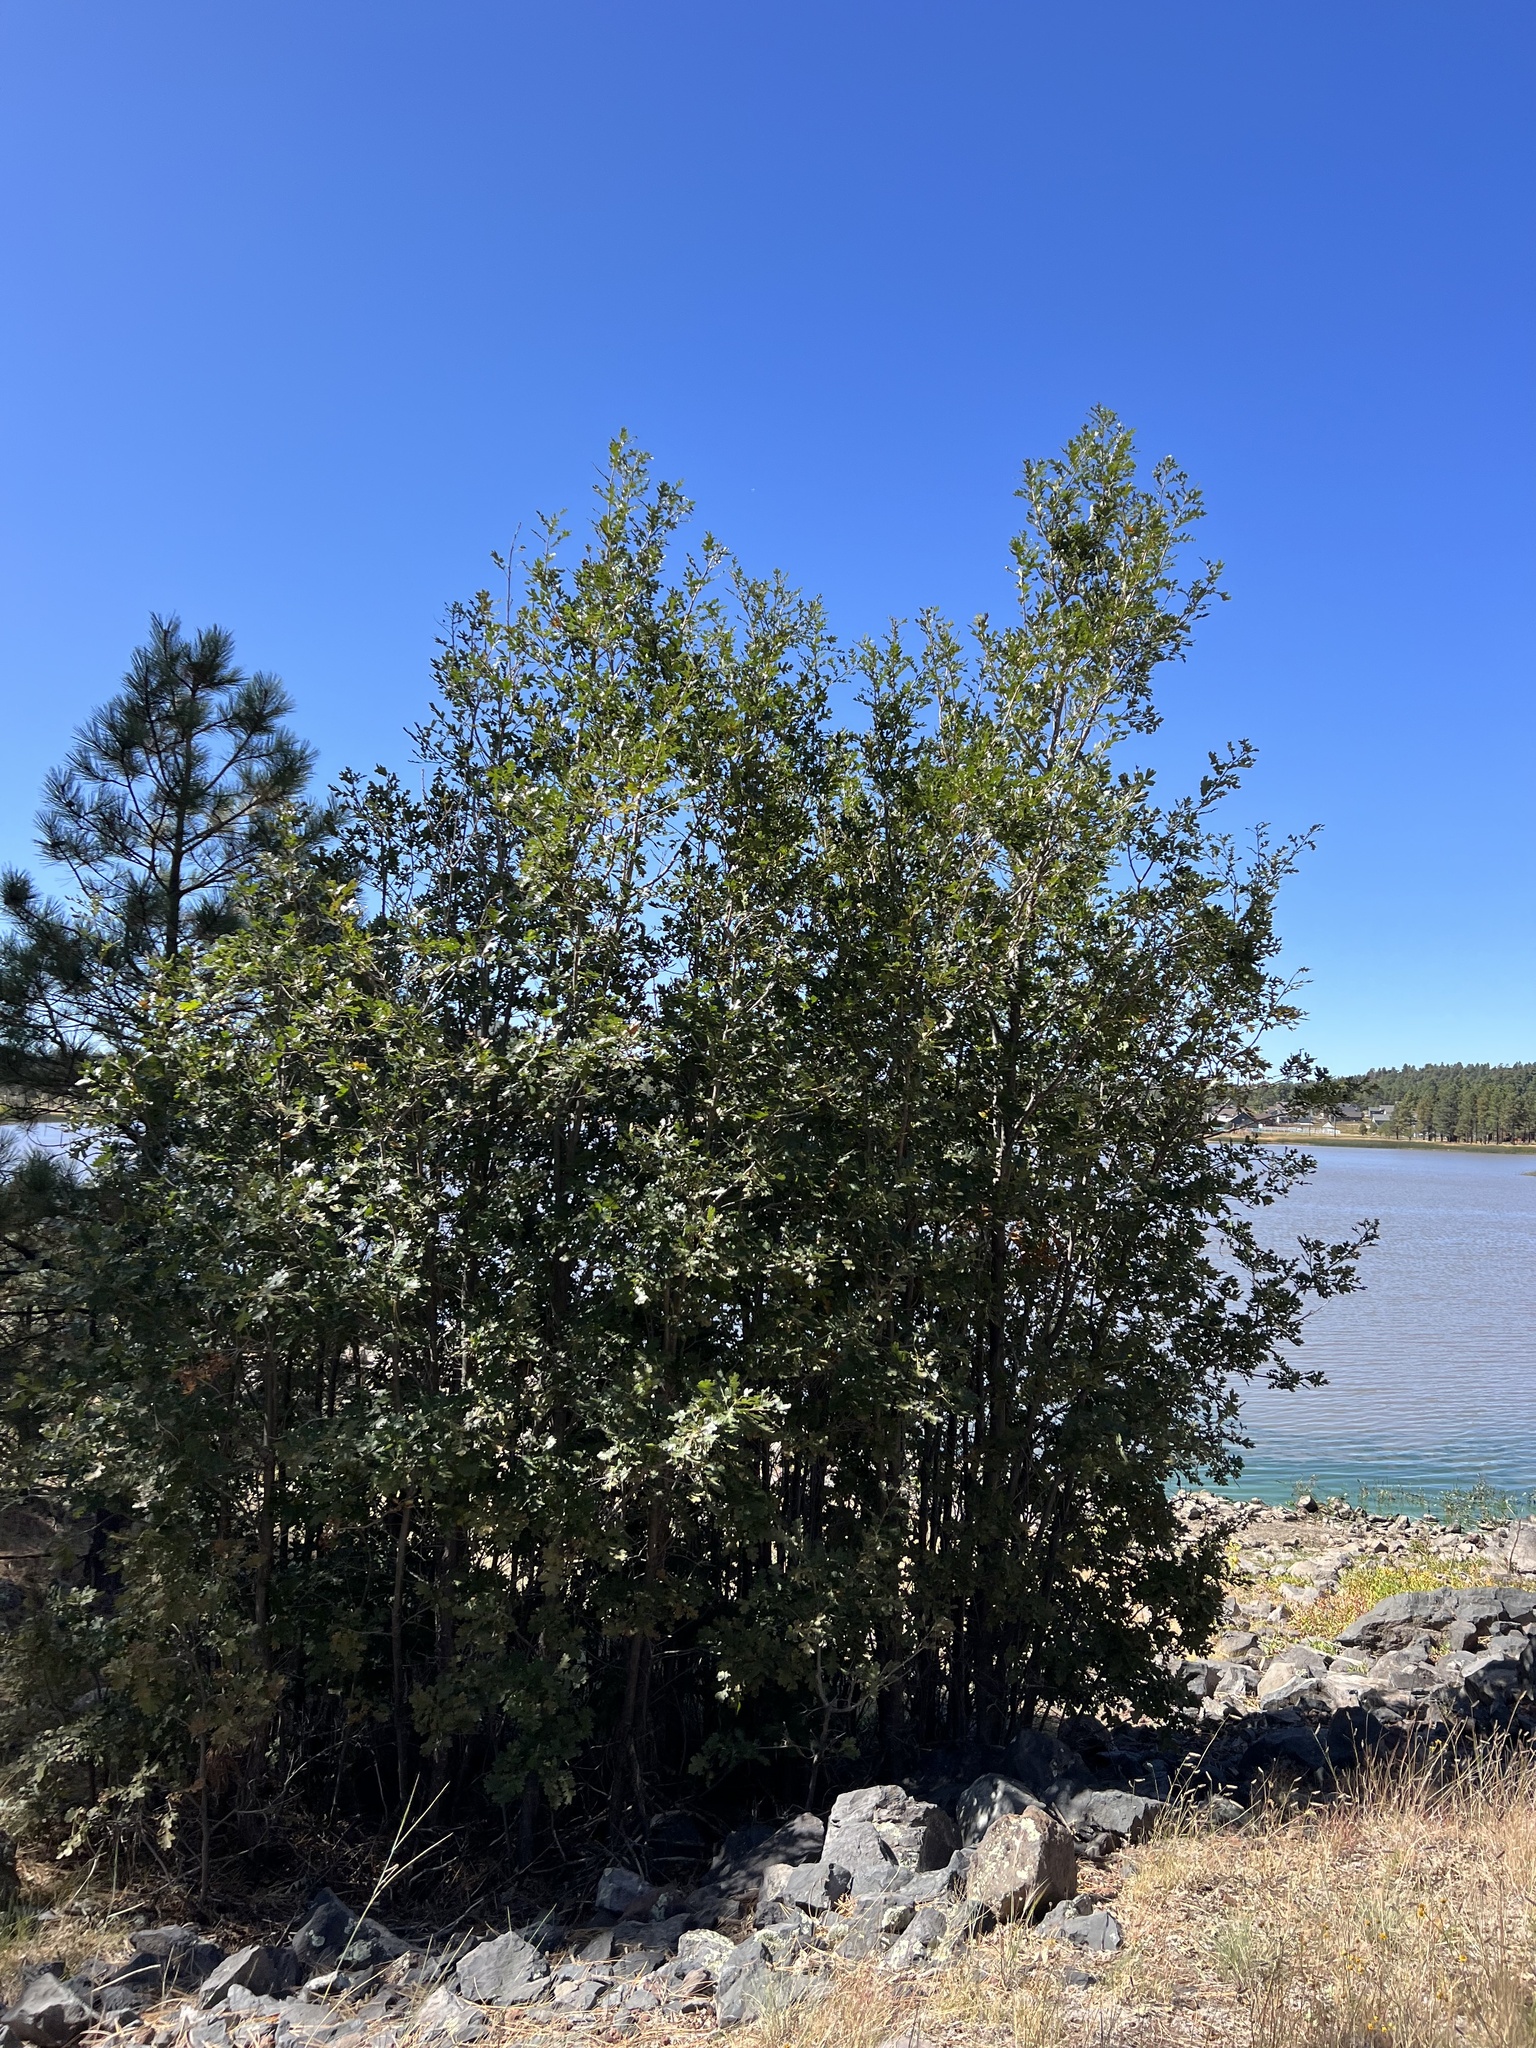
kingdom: Plantae
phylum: Tracheophyta
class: Magnoliopsida
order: Fagales
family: Fagaceae
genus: Quercus
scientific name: Quercus gambelii
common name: Gambel oak
